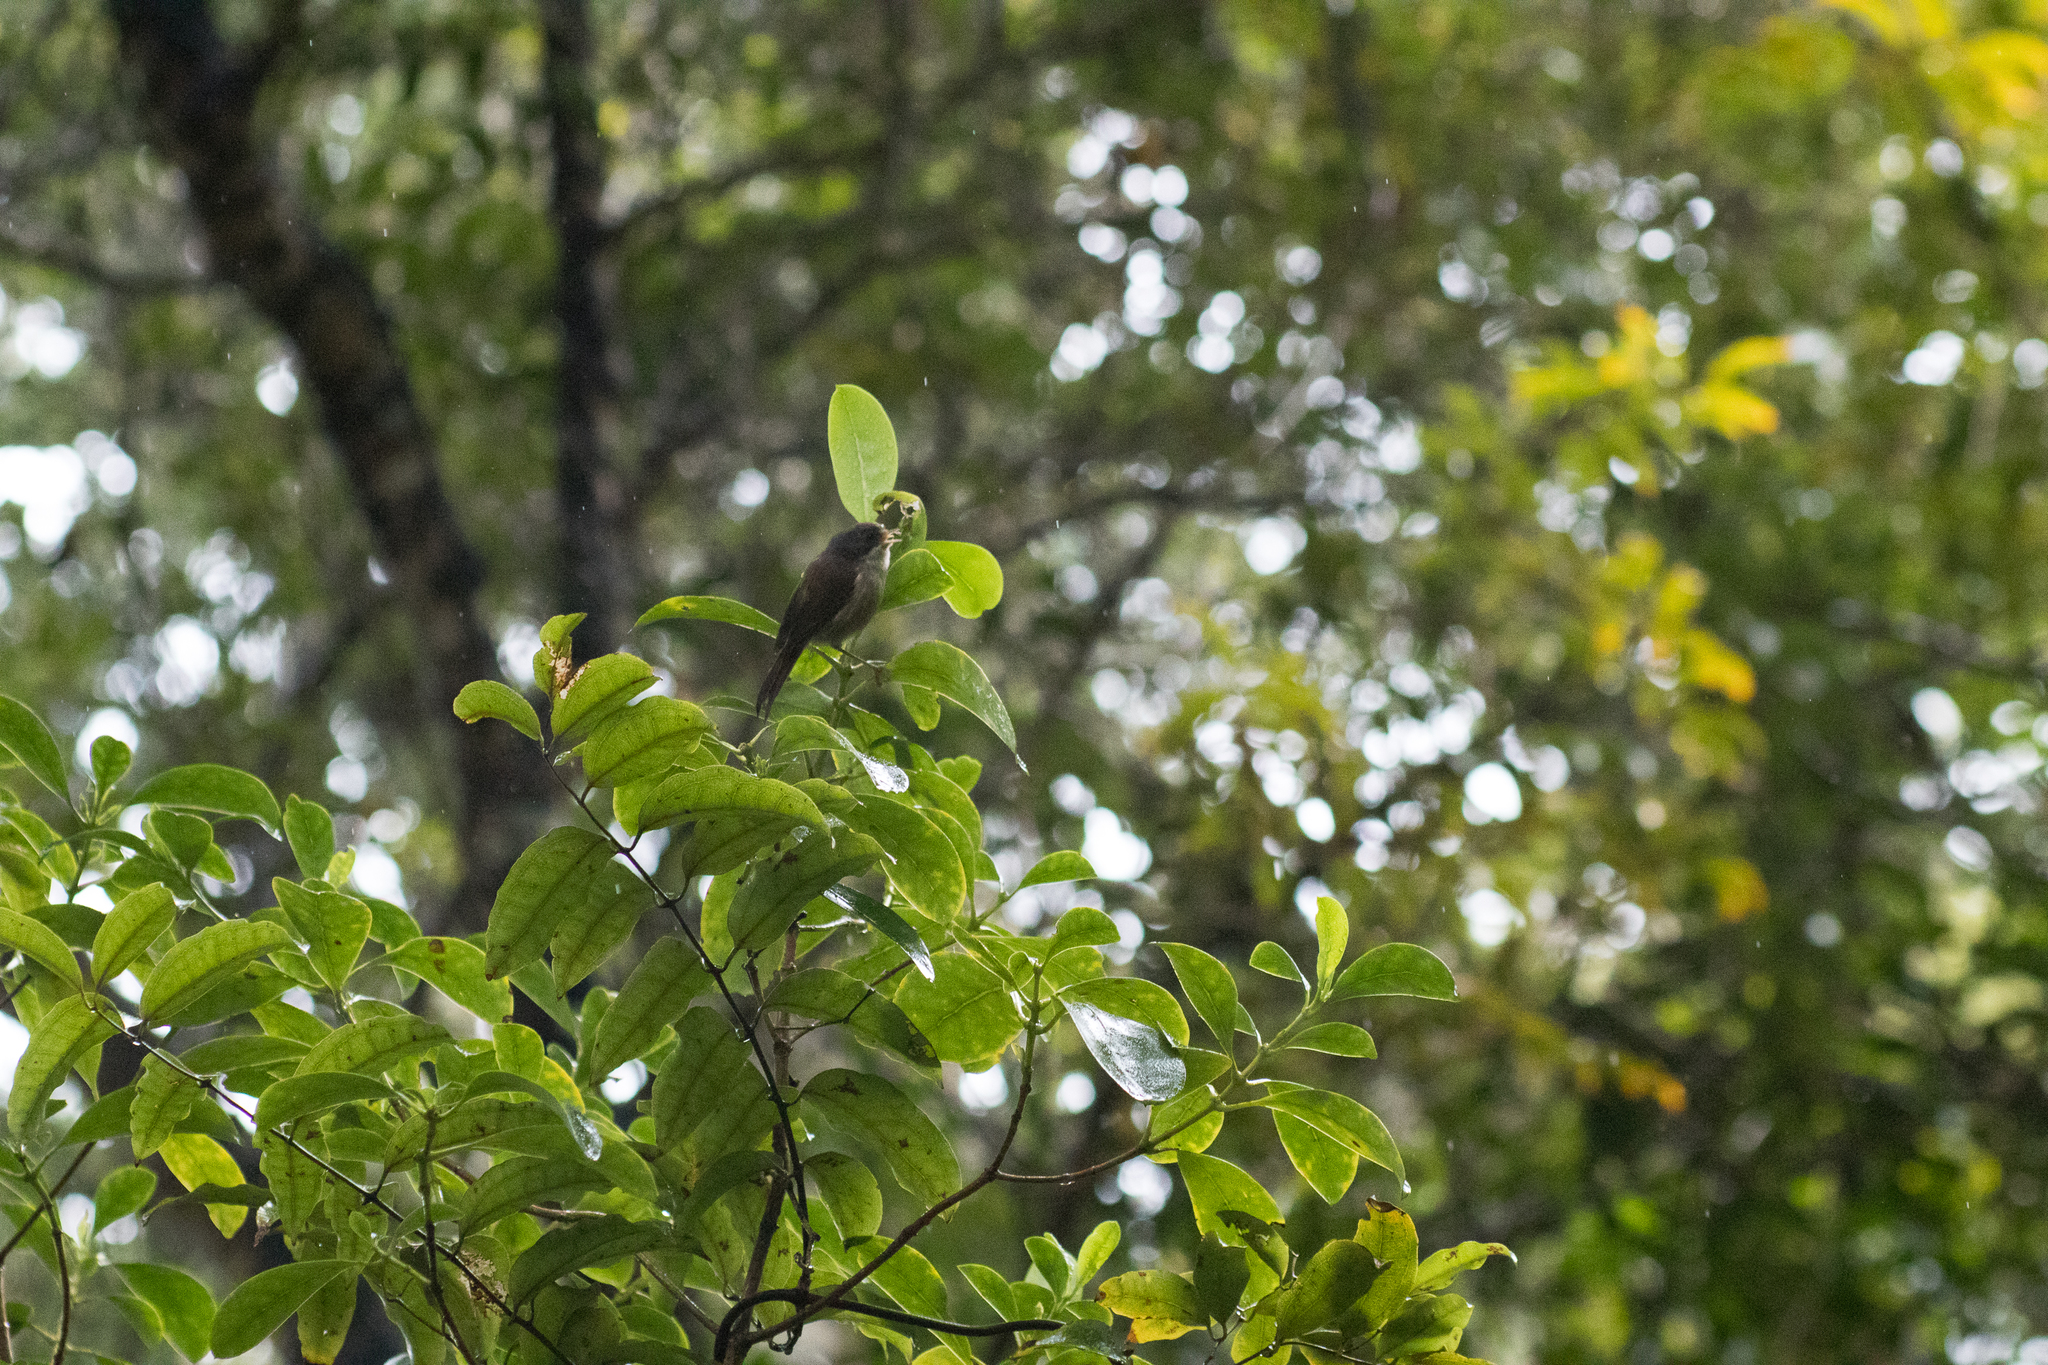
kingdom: Animalia
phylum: Chordata
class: Aves
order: Passeriformes
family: Acanthizidae
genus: Finschia
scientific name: Finschia novaeseelandiae
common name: Pipipi
